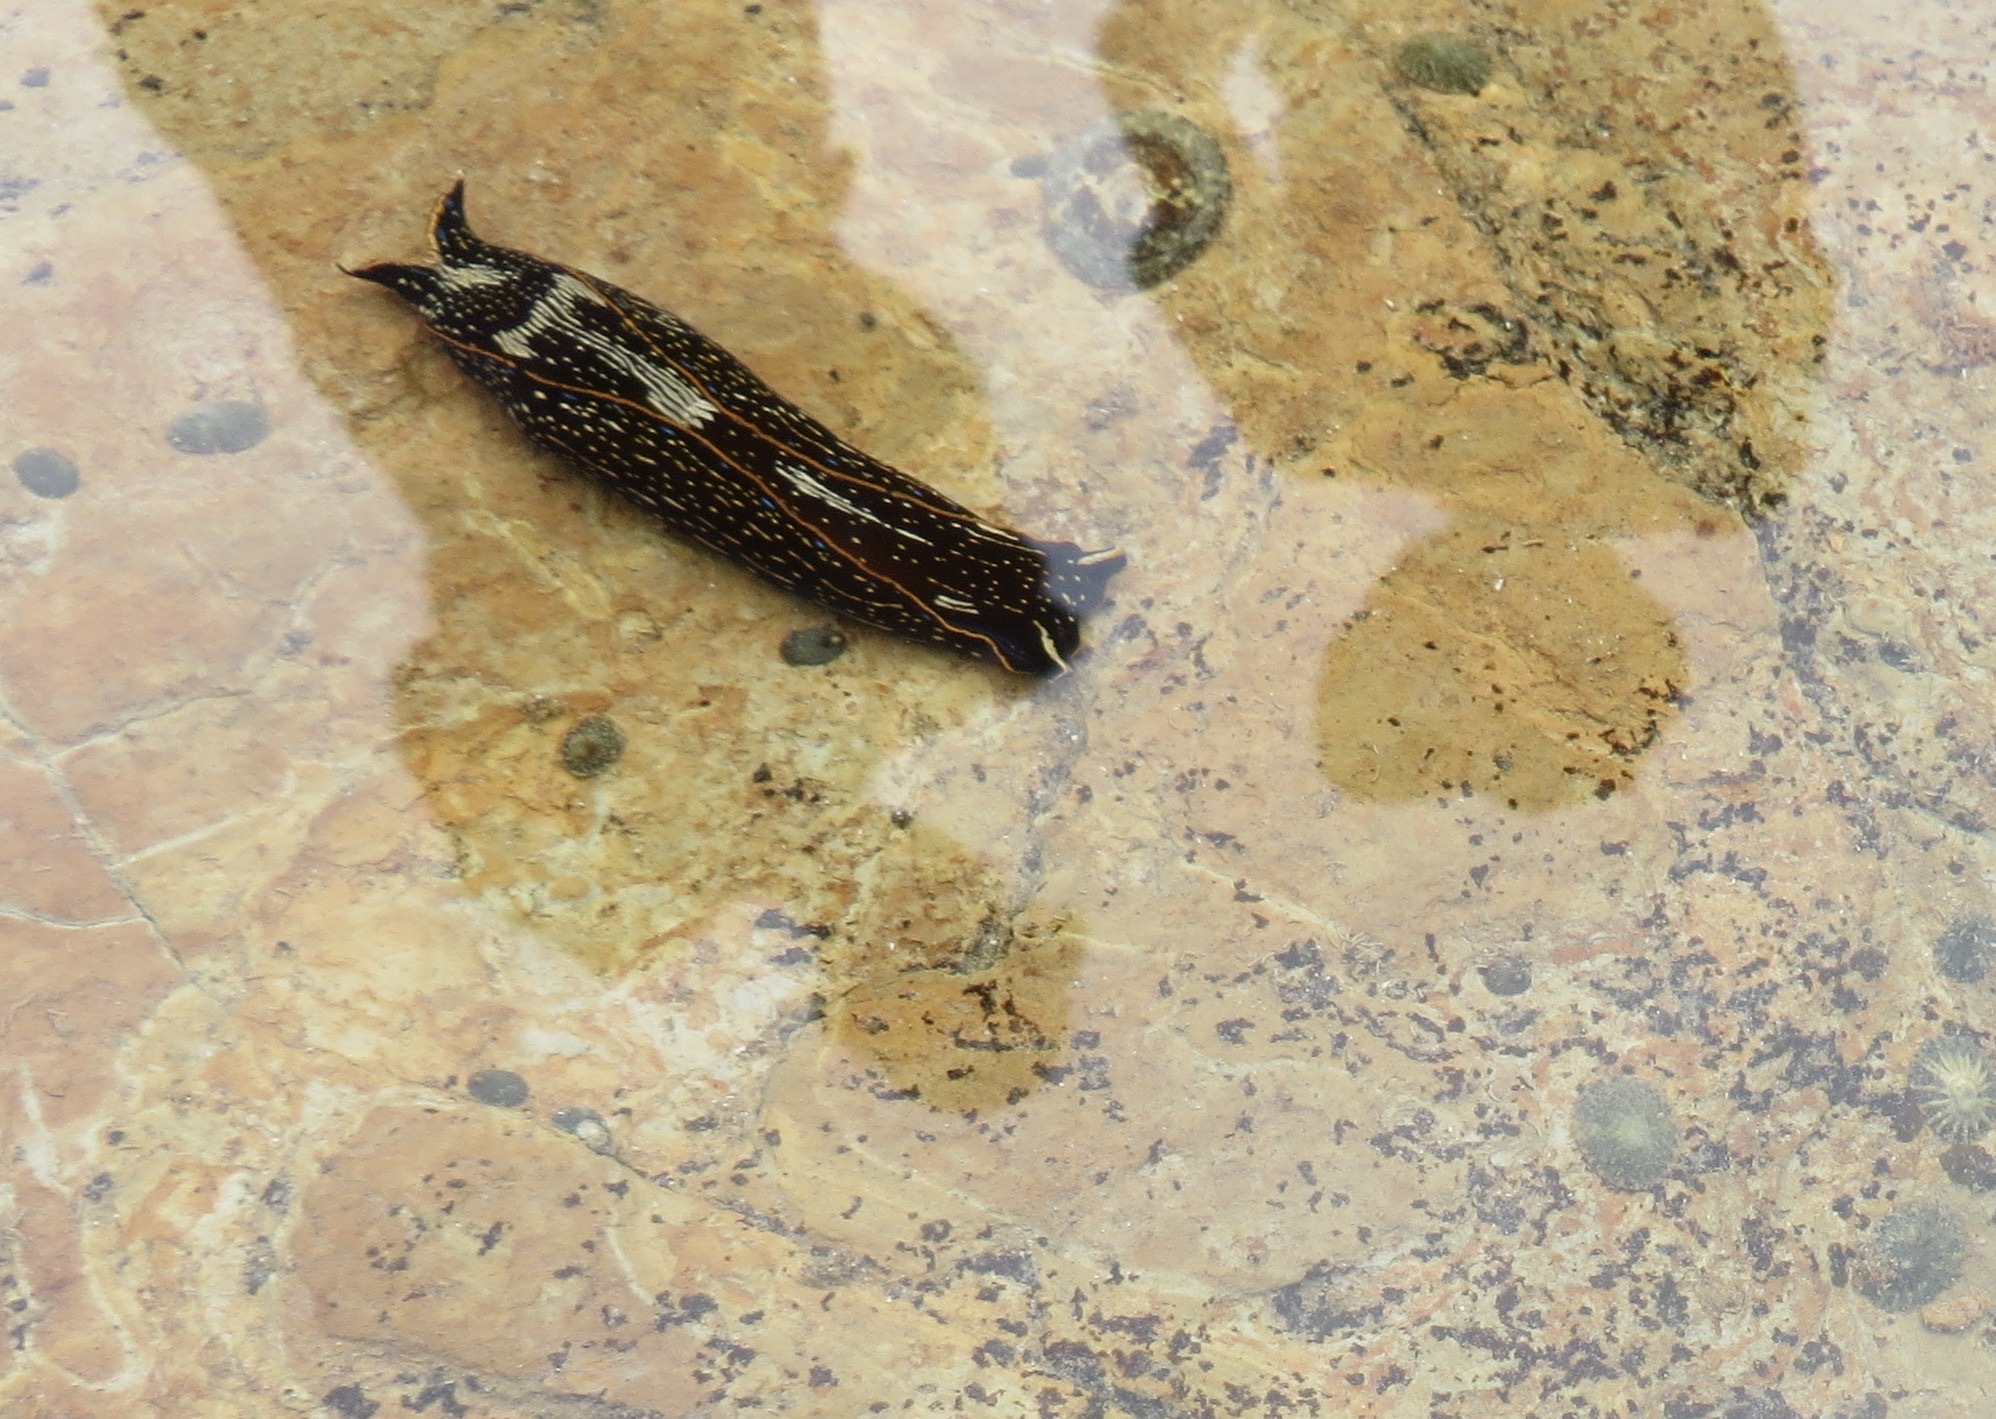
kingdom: Animalia
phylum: Mollusca
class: Gastropoda
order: Cephalaspidea
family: Aglajidae
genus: Navanax
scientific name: Navanax inermis
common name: California aglaja
